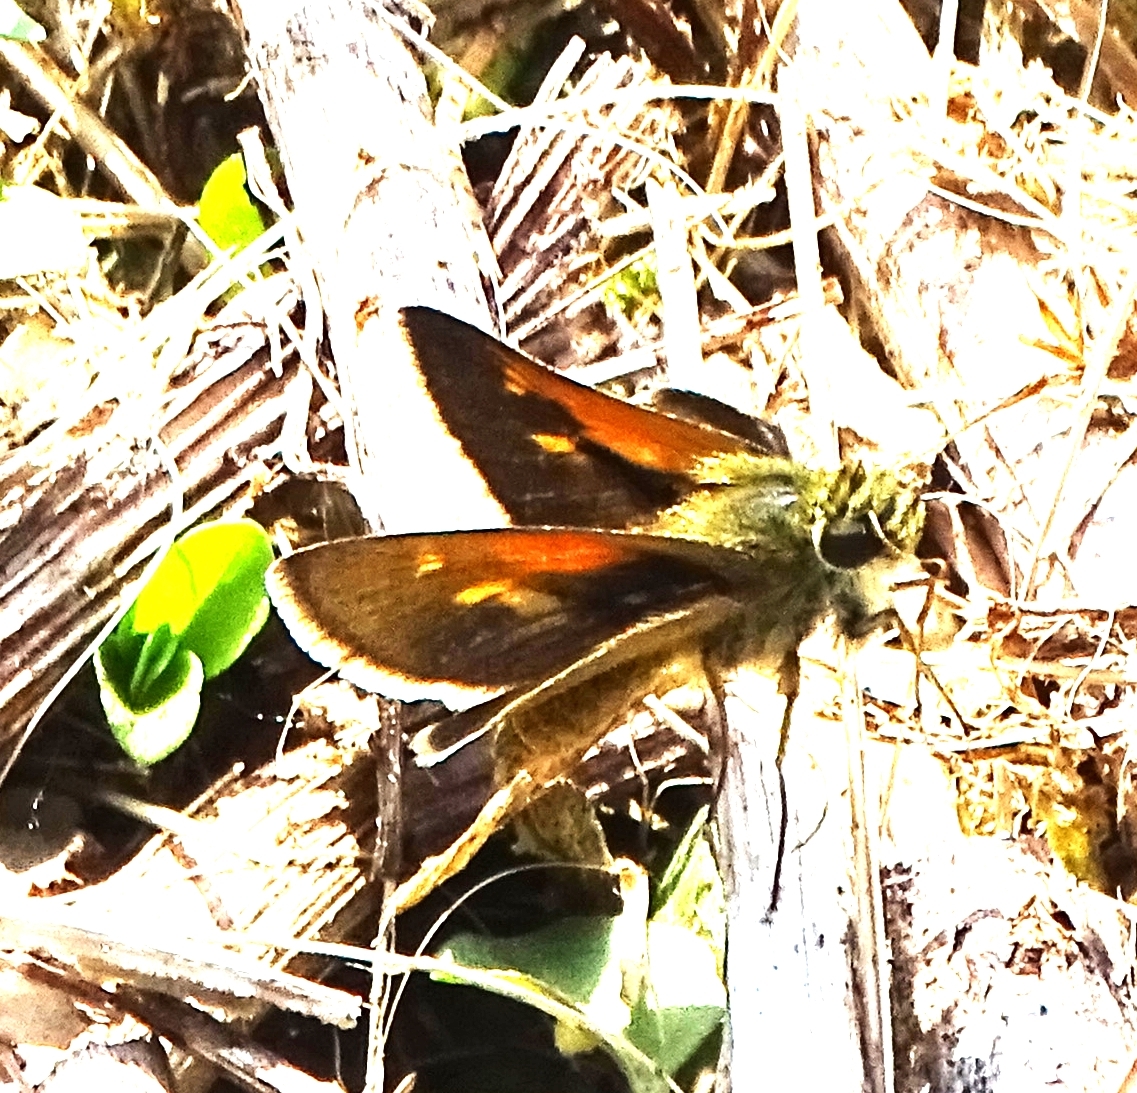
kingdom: Animalia
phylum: Arthropoda
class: Insecta
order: Lepidoptera
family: Hesperiidae
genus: Polites
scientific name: Polites themistocles
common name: Tawny-edged skipper
